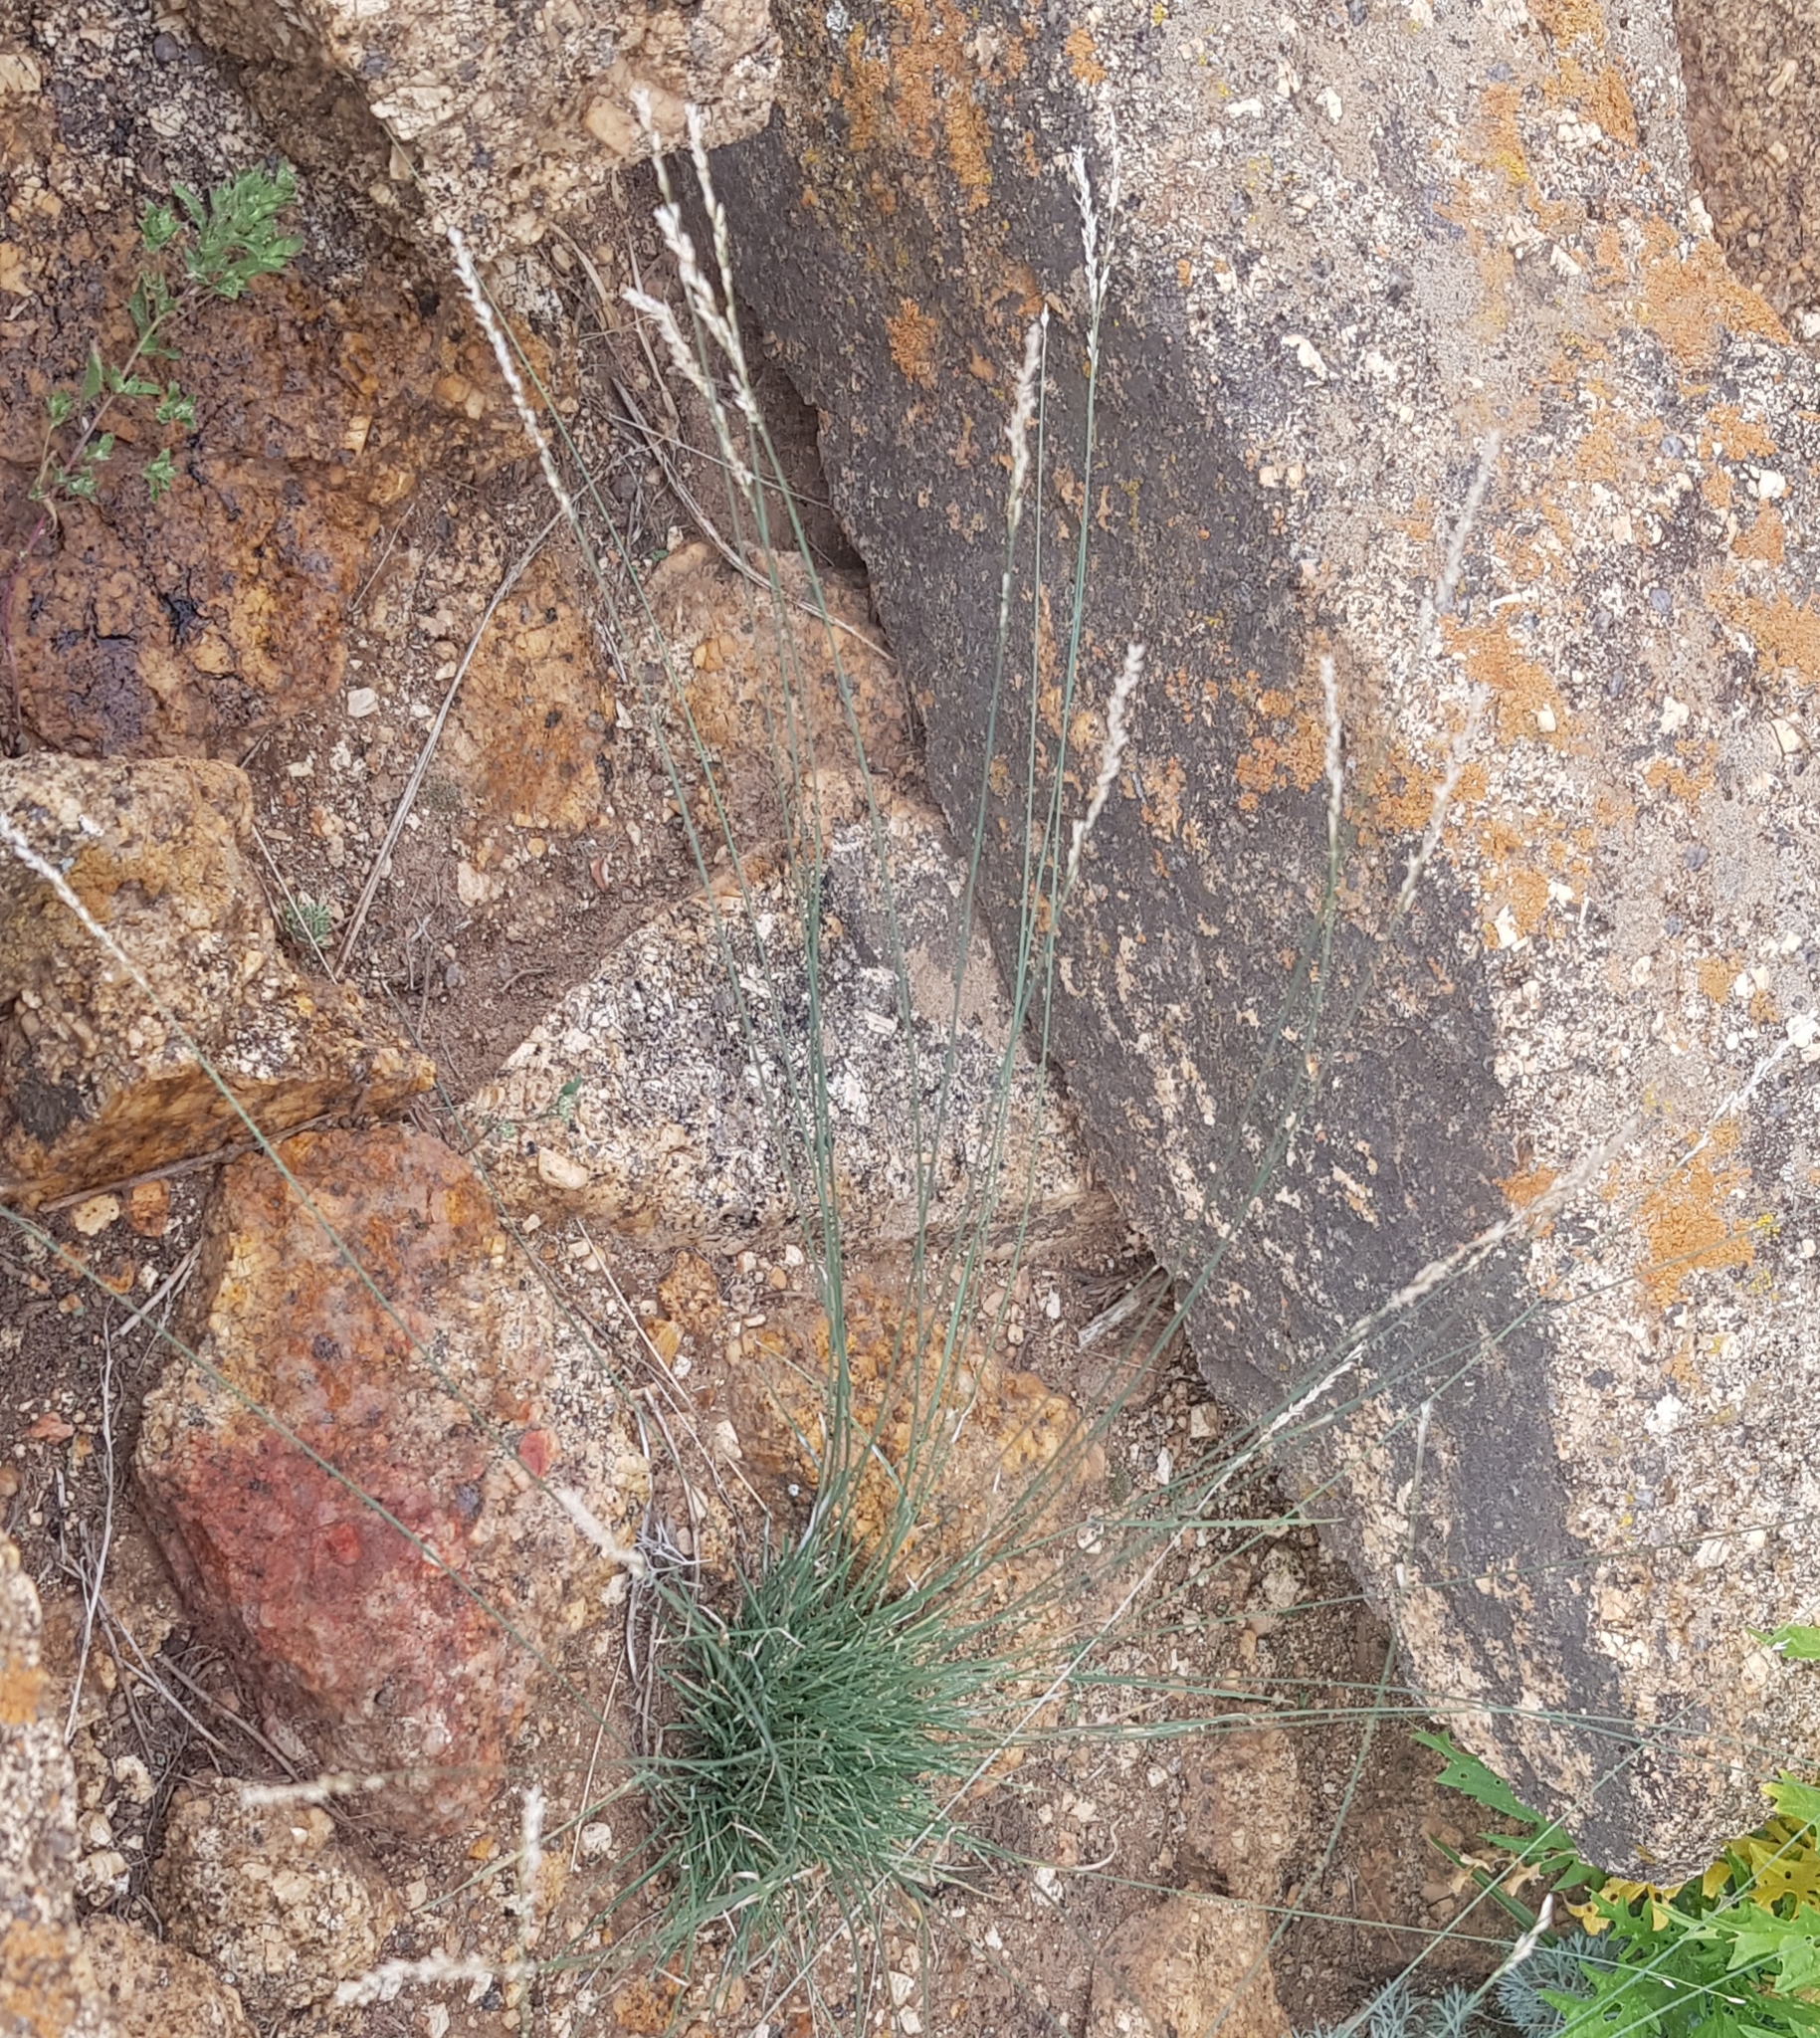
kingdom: Plantae
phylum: Tracheophyta
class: Liliopsida
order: Poales
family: Poaceae
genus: Festuca
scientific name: Festuca rubra
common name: Red fescue
